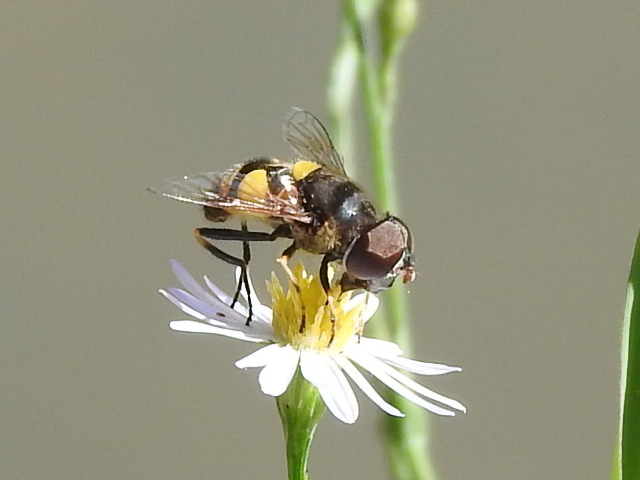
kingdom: Animalia
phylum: Arthropoda
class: Insecta
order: Diptera
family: Syrphidae
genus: Eristalis
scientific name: Eristalis transversa
